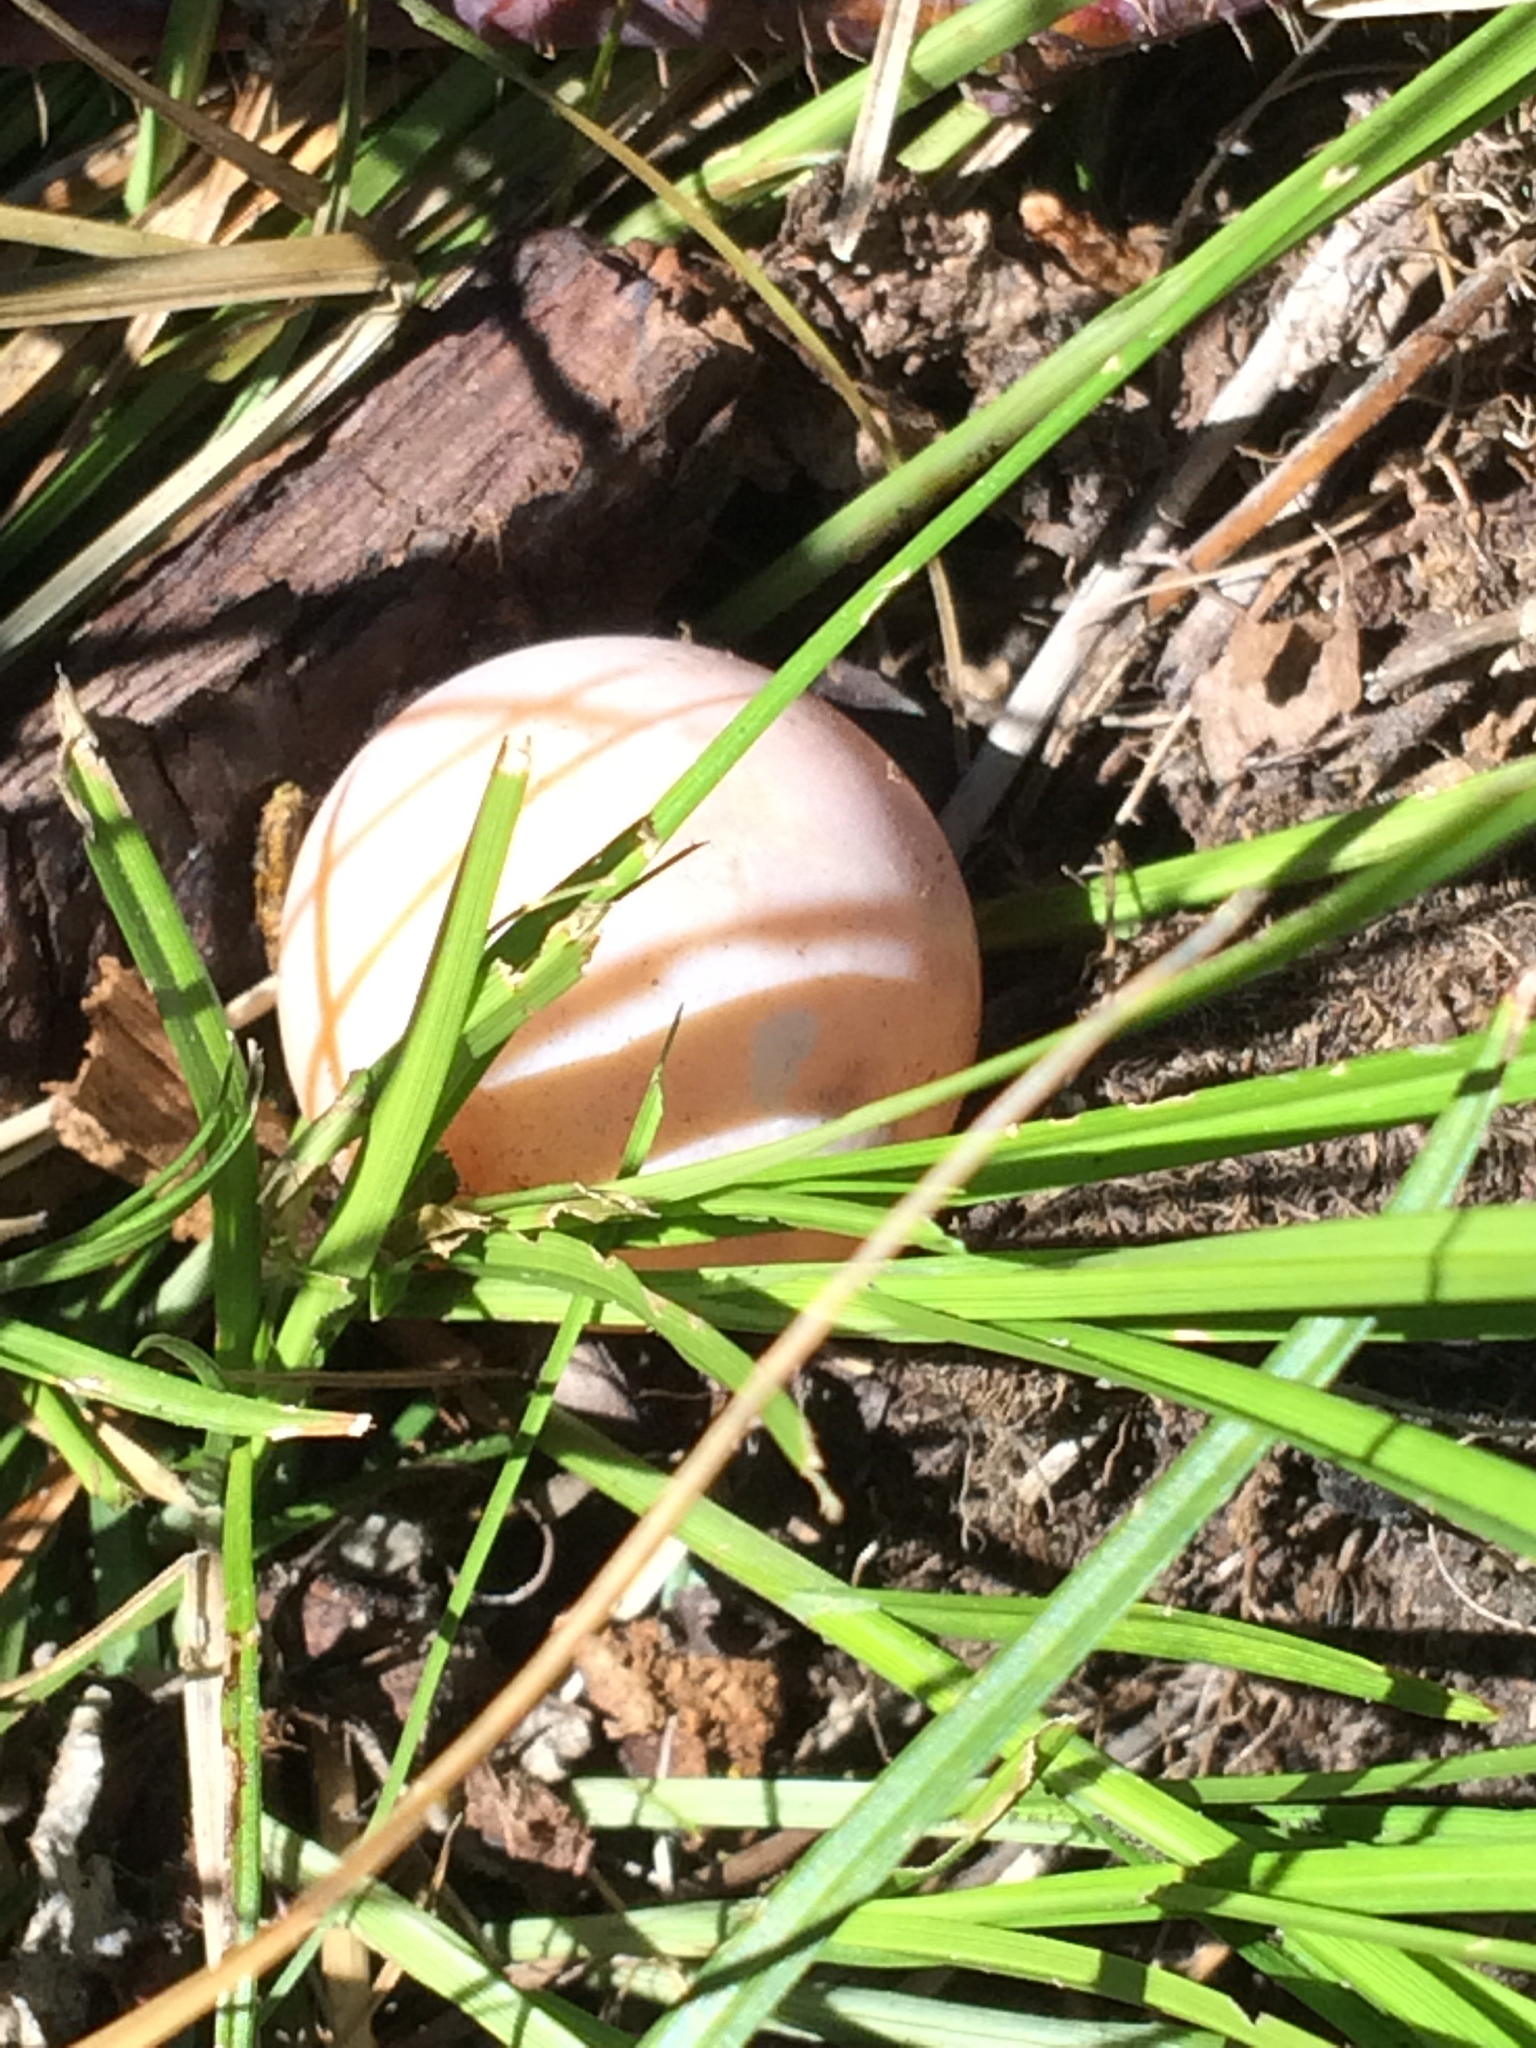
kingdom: Animalia
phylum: Chordata
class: Testudines
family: Chelydridae
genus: Chelydra
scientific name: Chelydra serpentina
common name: Common snapping turtle
